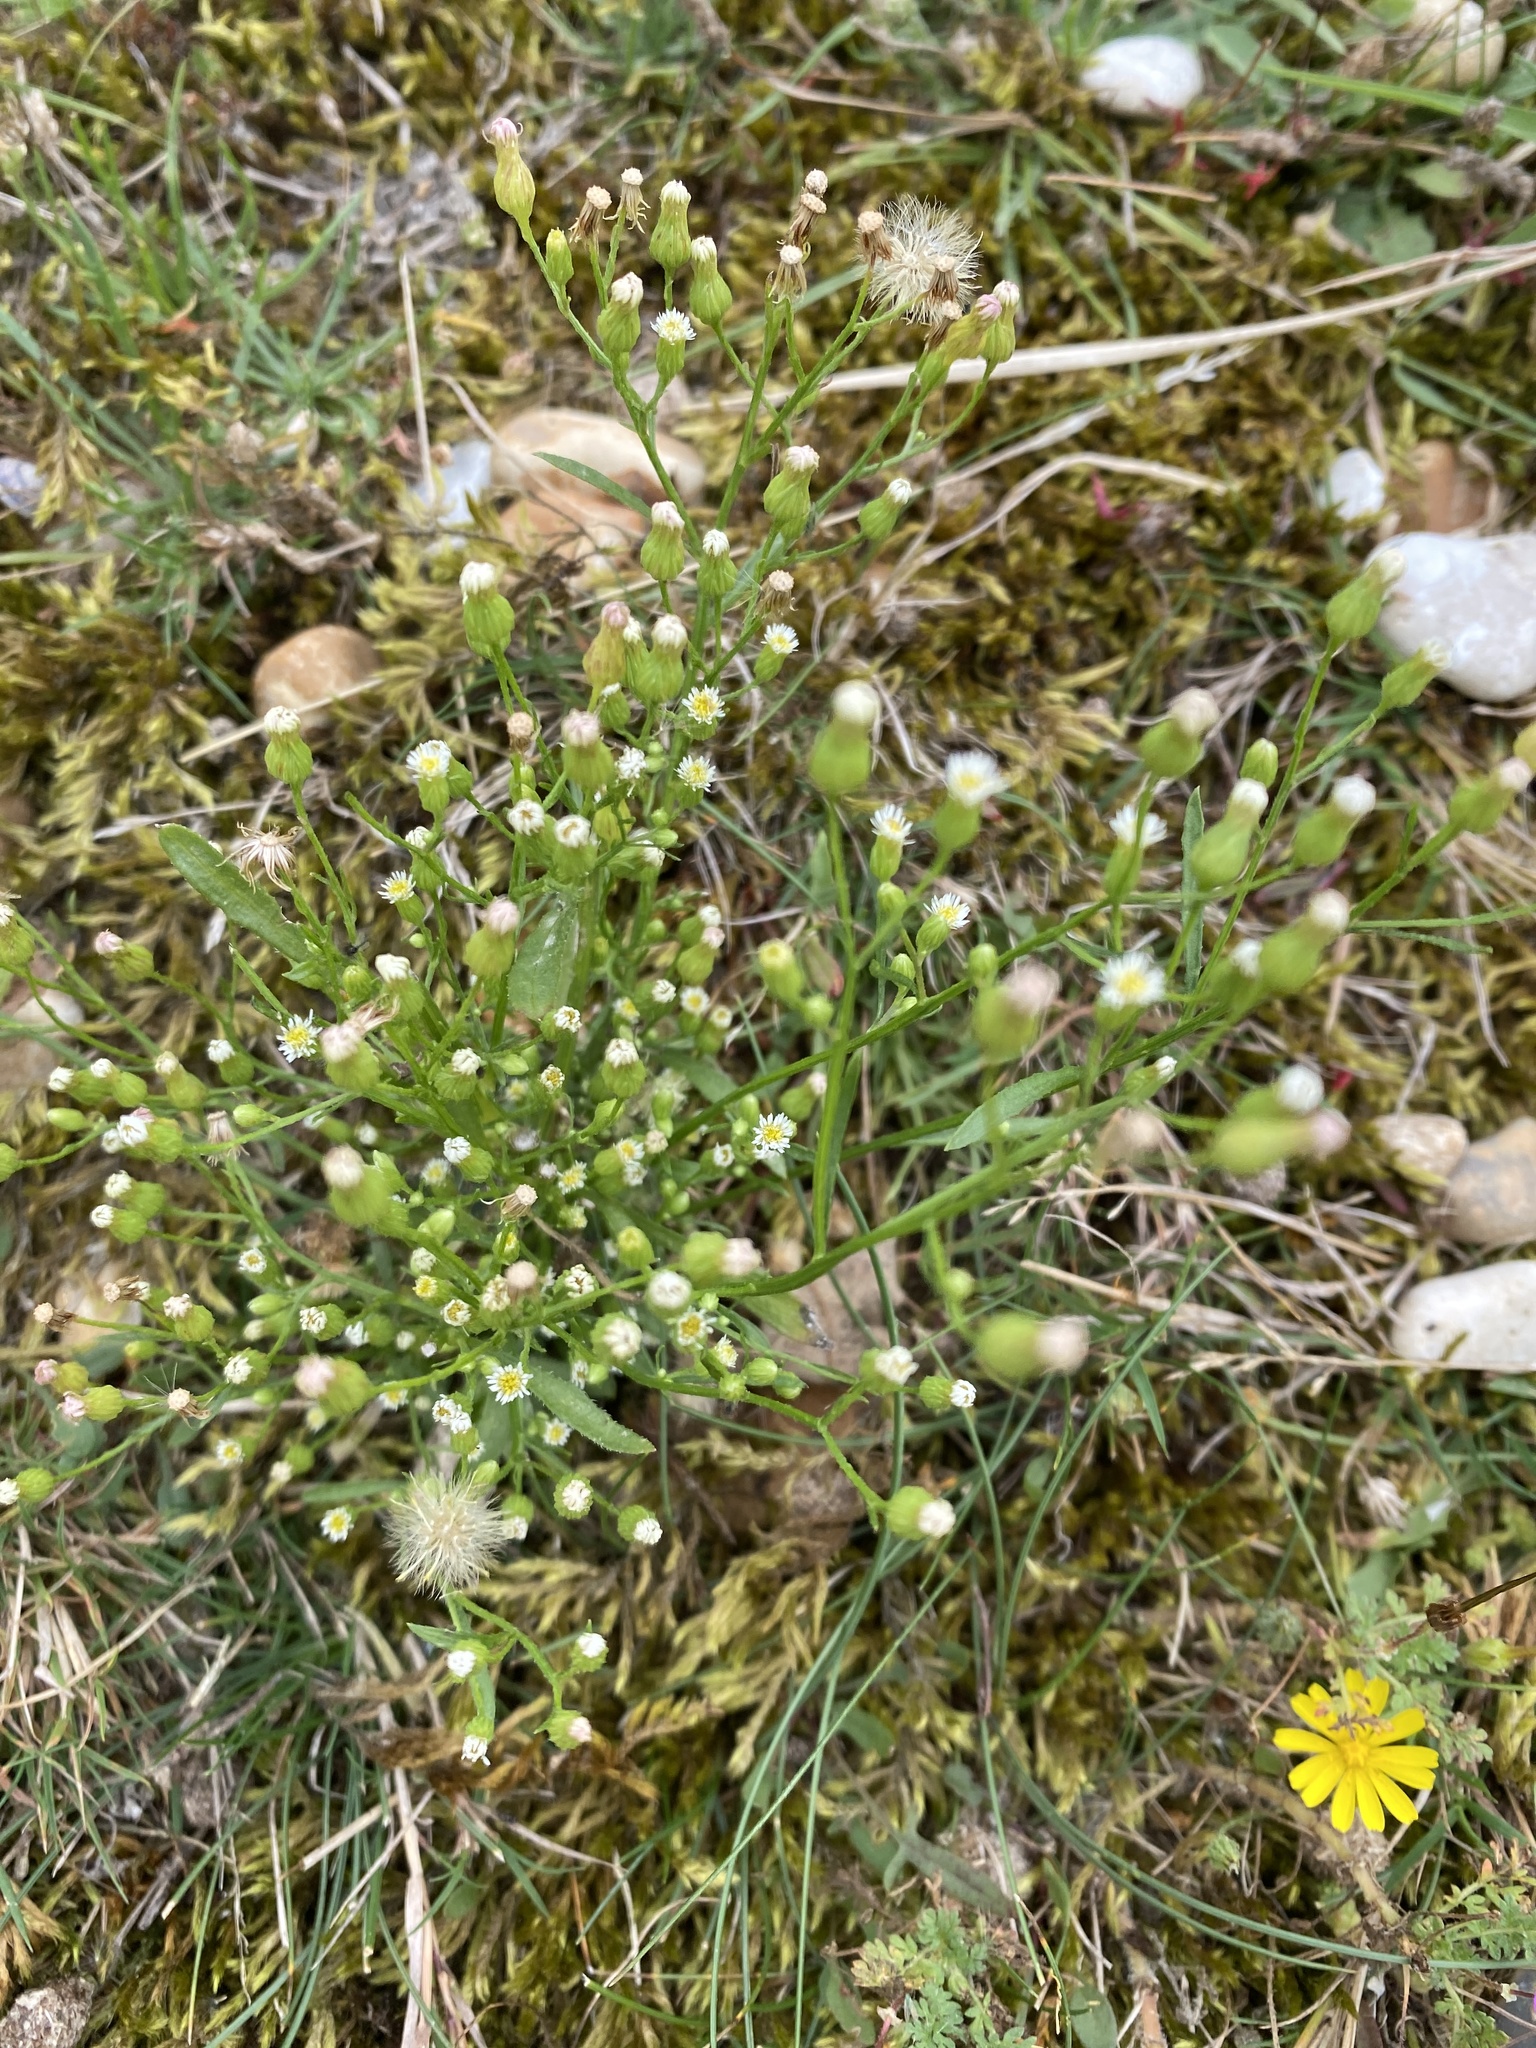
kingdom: Plantae
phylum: Tracheophyta
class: Magnoliopsida
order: Asterales
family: Asteraceae
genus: Erigeron
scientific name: Erigeron canadensis
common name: Canadian fleabane
